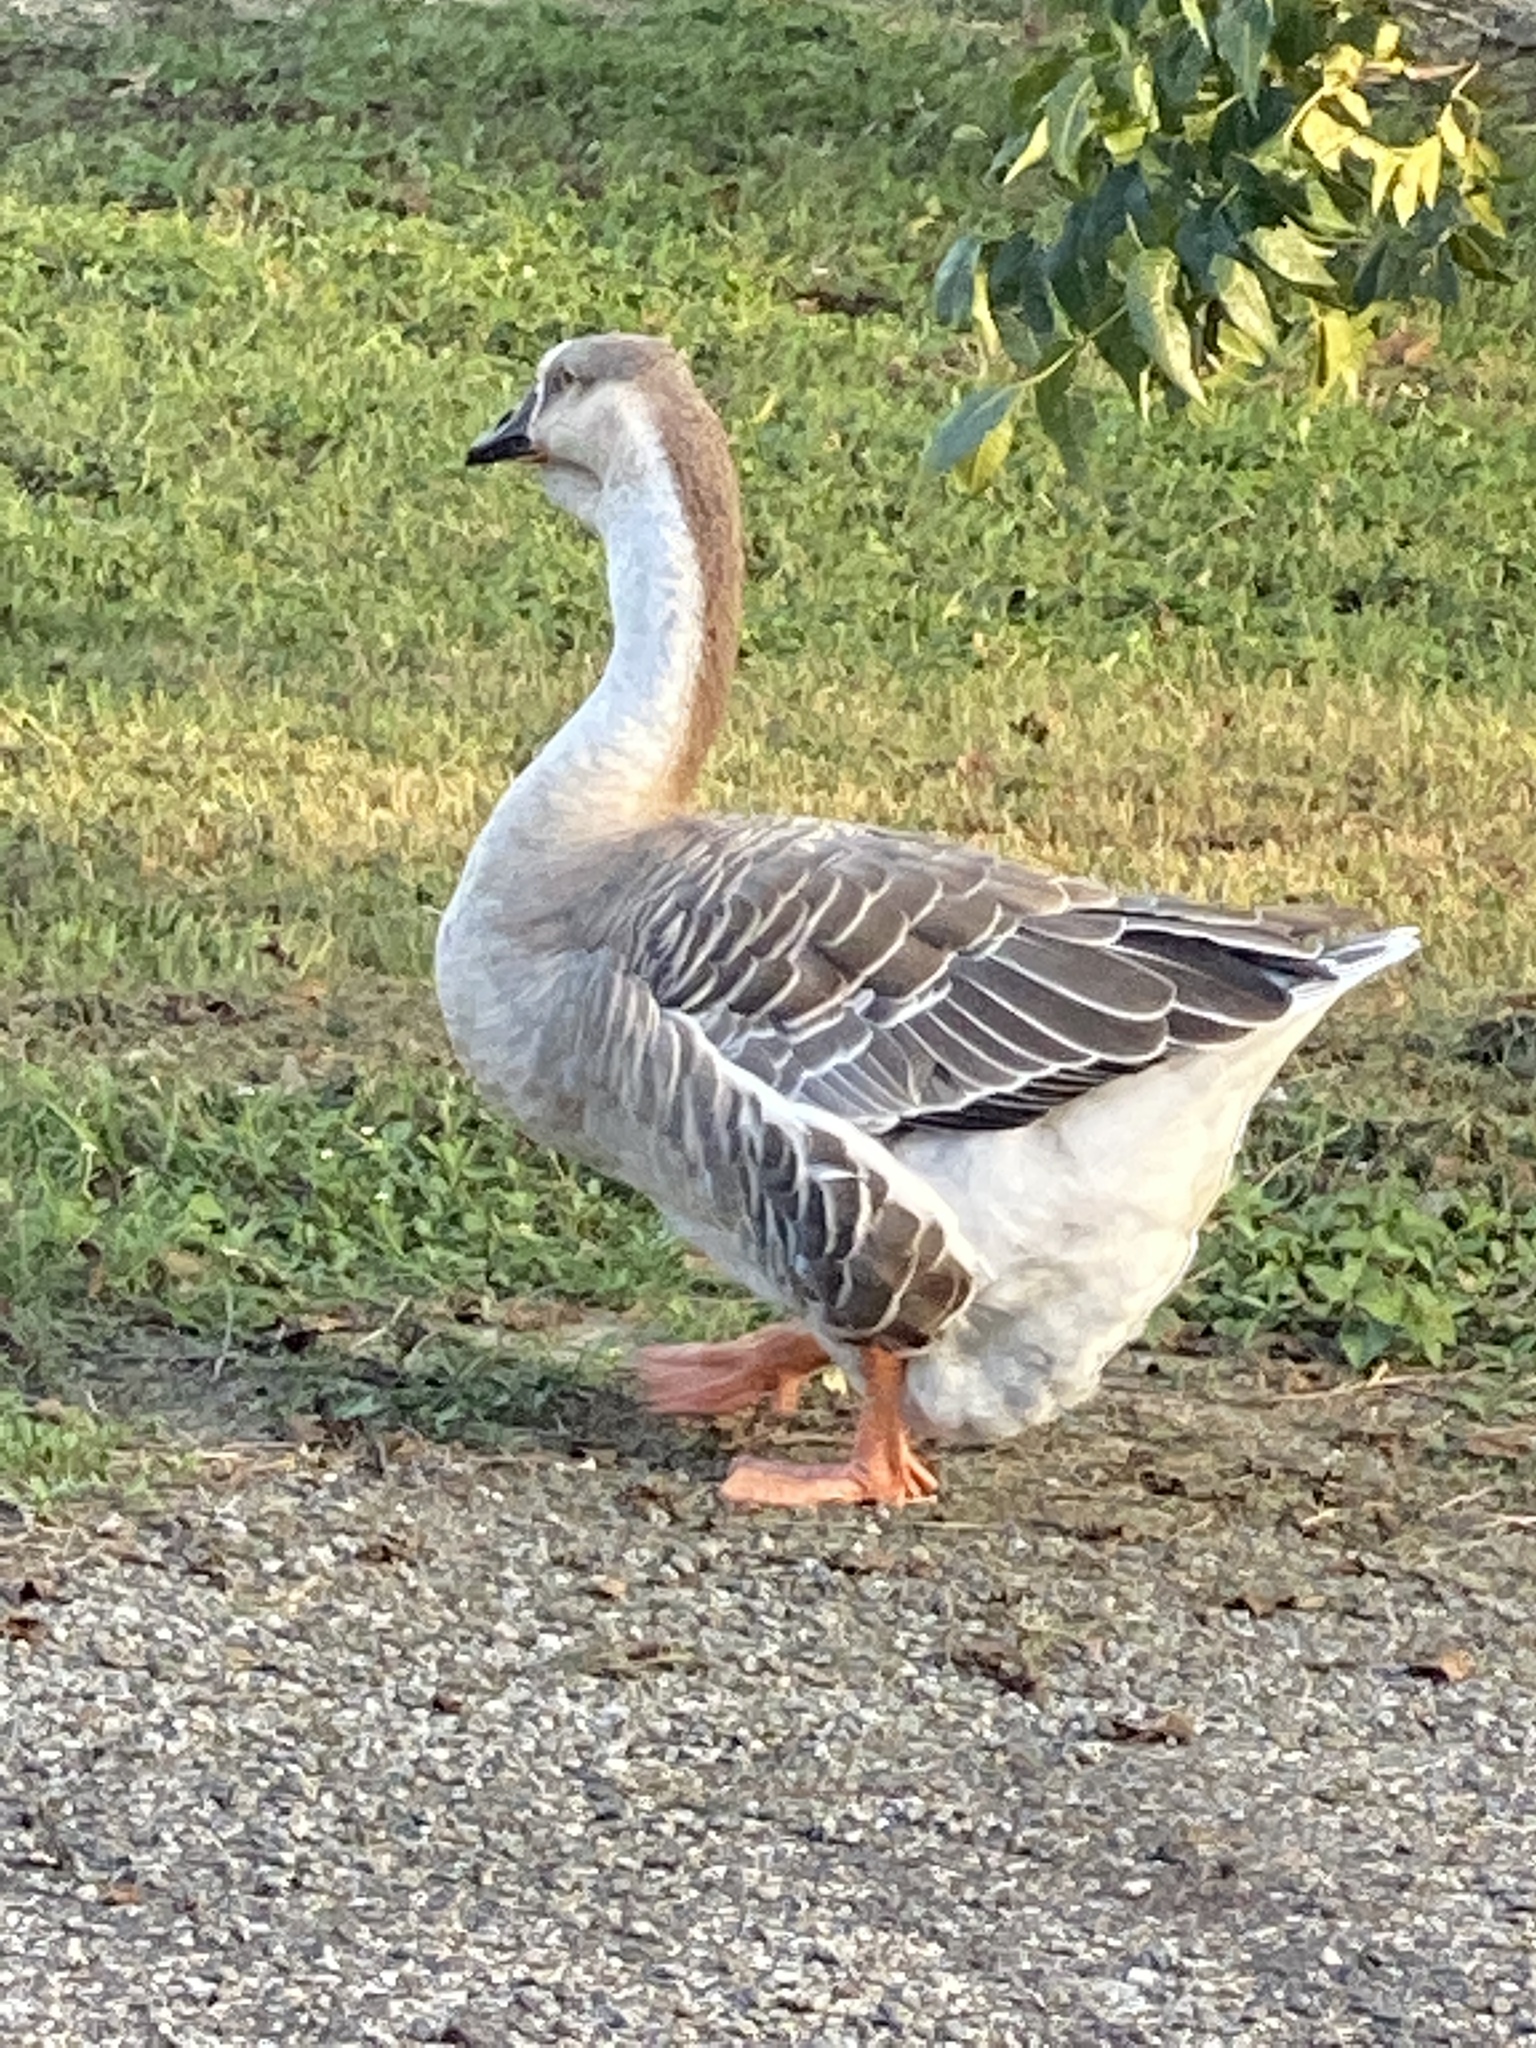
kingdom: Animalia
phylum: Chordata
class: Aves
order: Anseriformes
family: Anatidae
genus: Anser
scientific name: Anser cygnoides
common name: Swan goose
